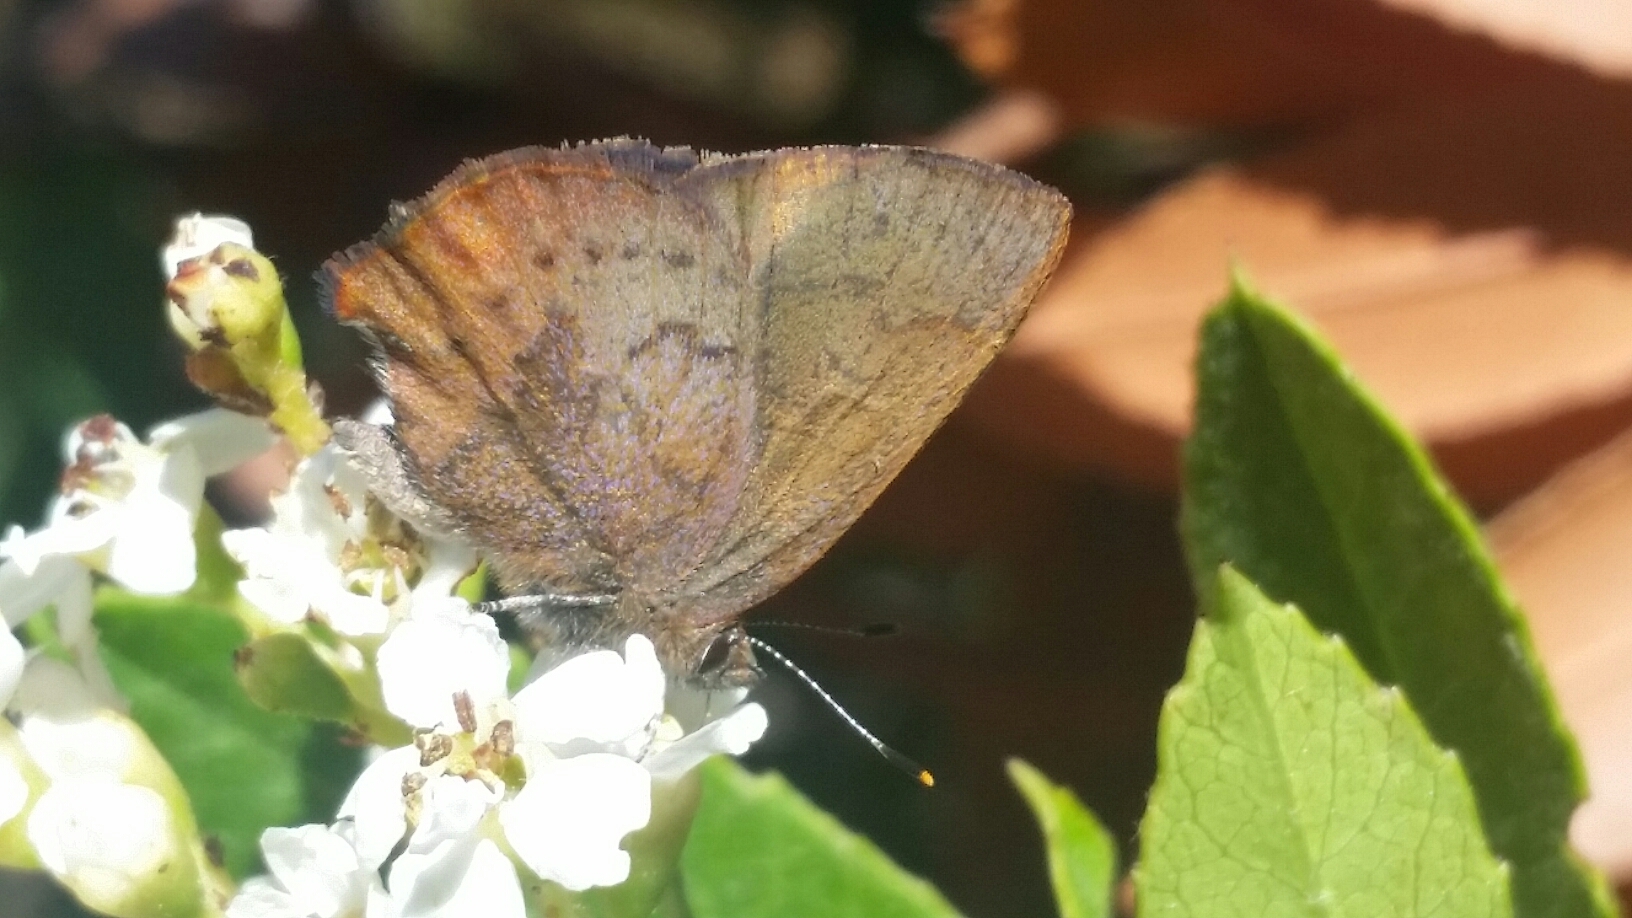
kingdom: Animalia
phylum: Arthropoda
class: Insecta
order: Lepidoptera
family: Lycaenidae
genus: Incisalia
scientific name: Incisalia irioides
